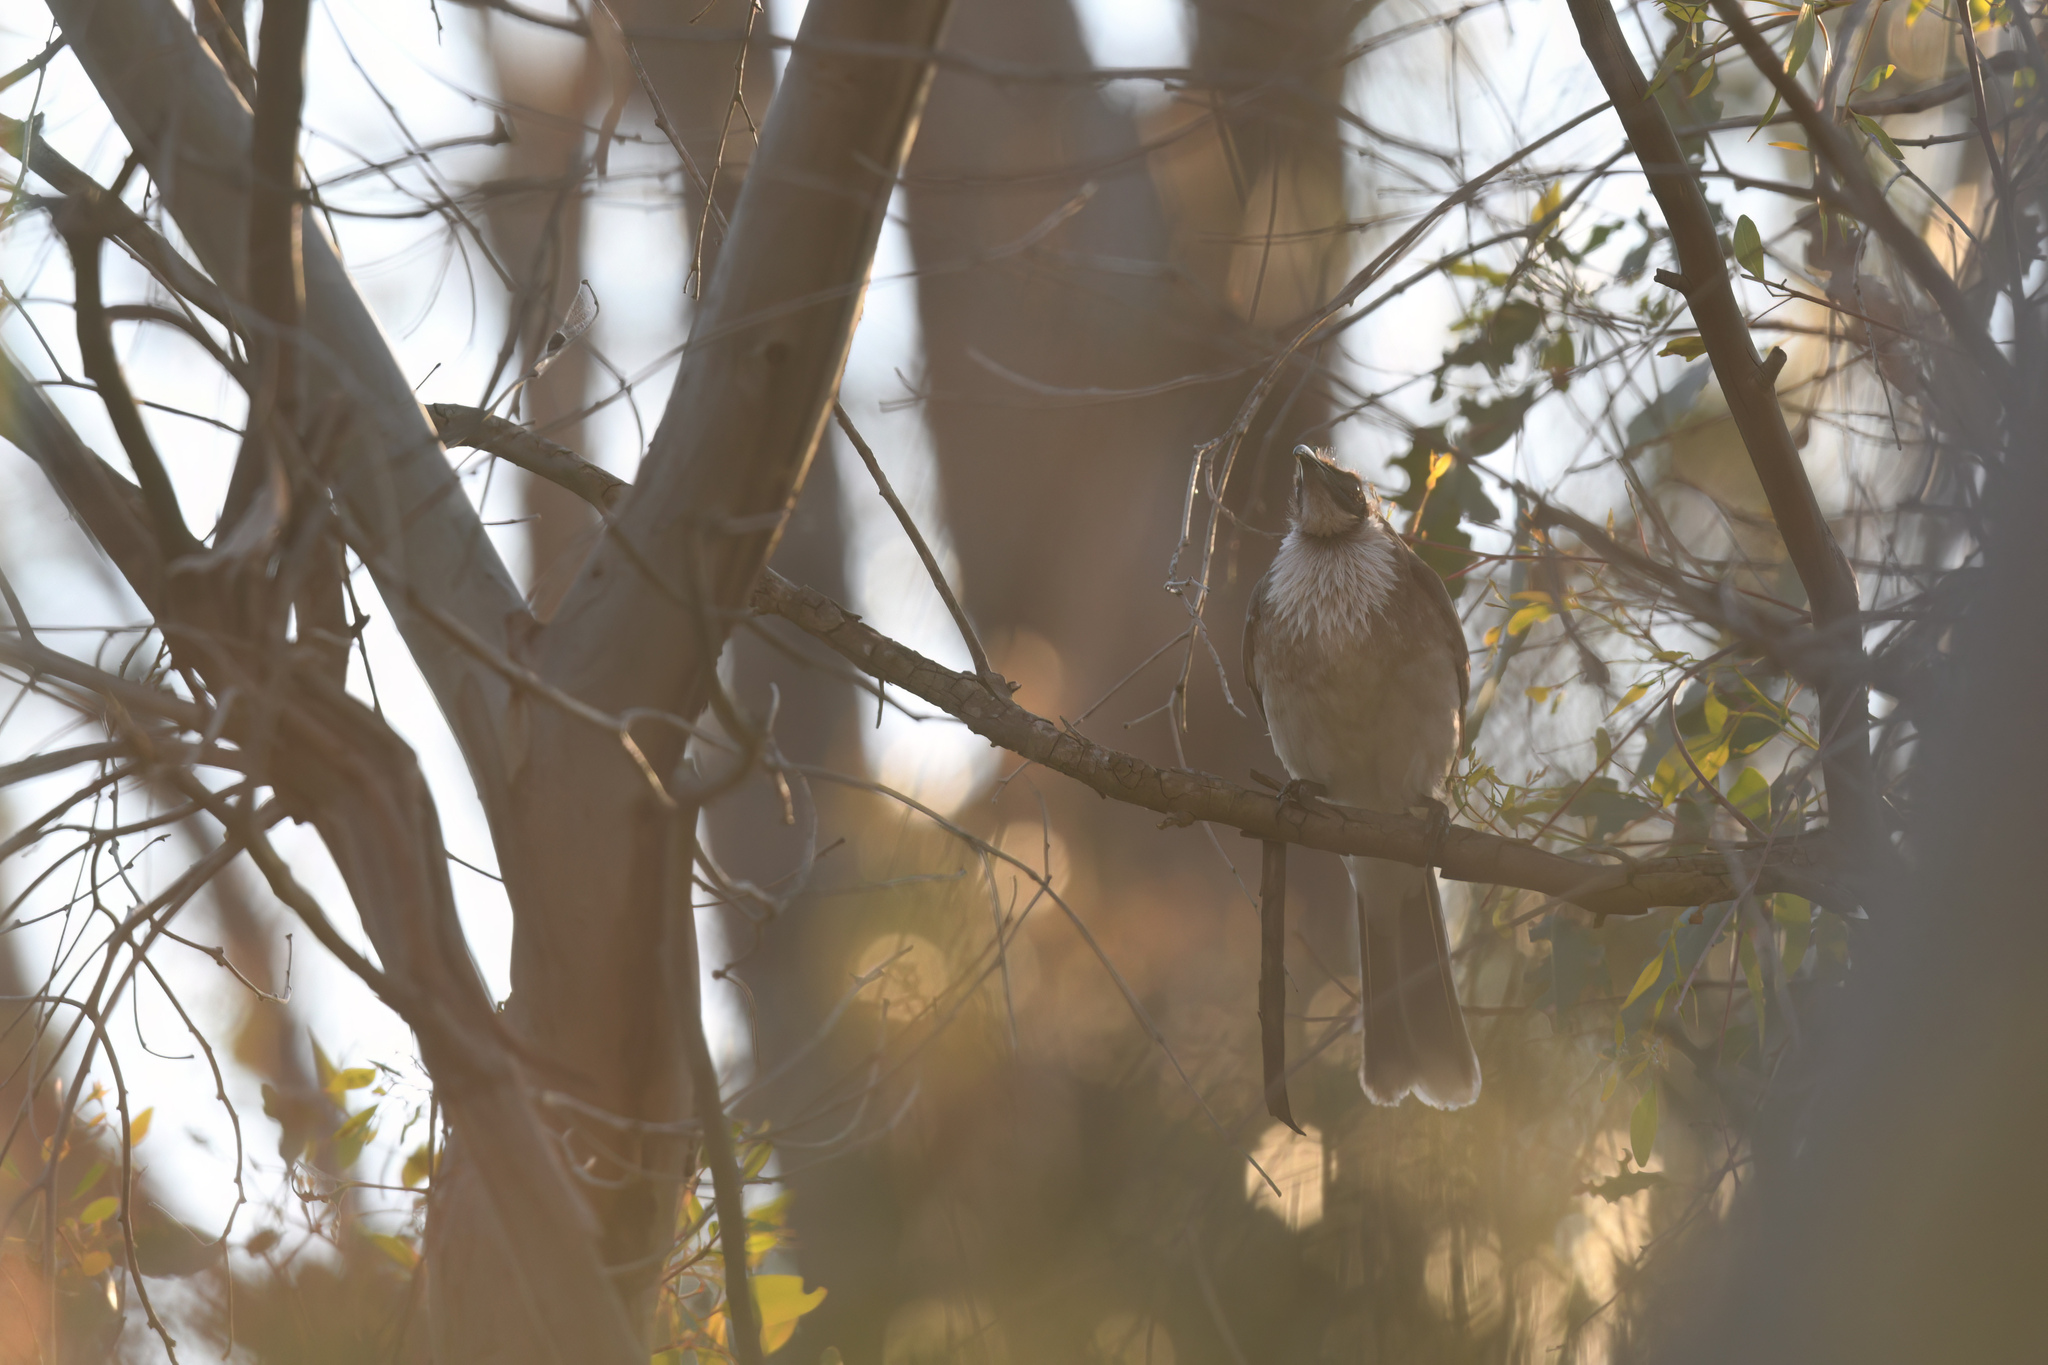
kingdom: Animalia
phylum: Chordata
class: Aves
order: Passeriformes
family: Meliphagidae
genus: Philemon
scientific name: Philemon corniculatus
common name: Noisy friarbird
